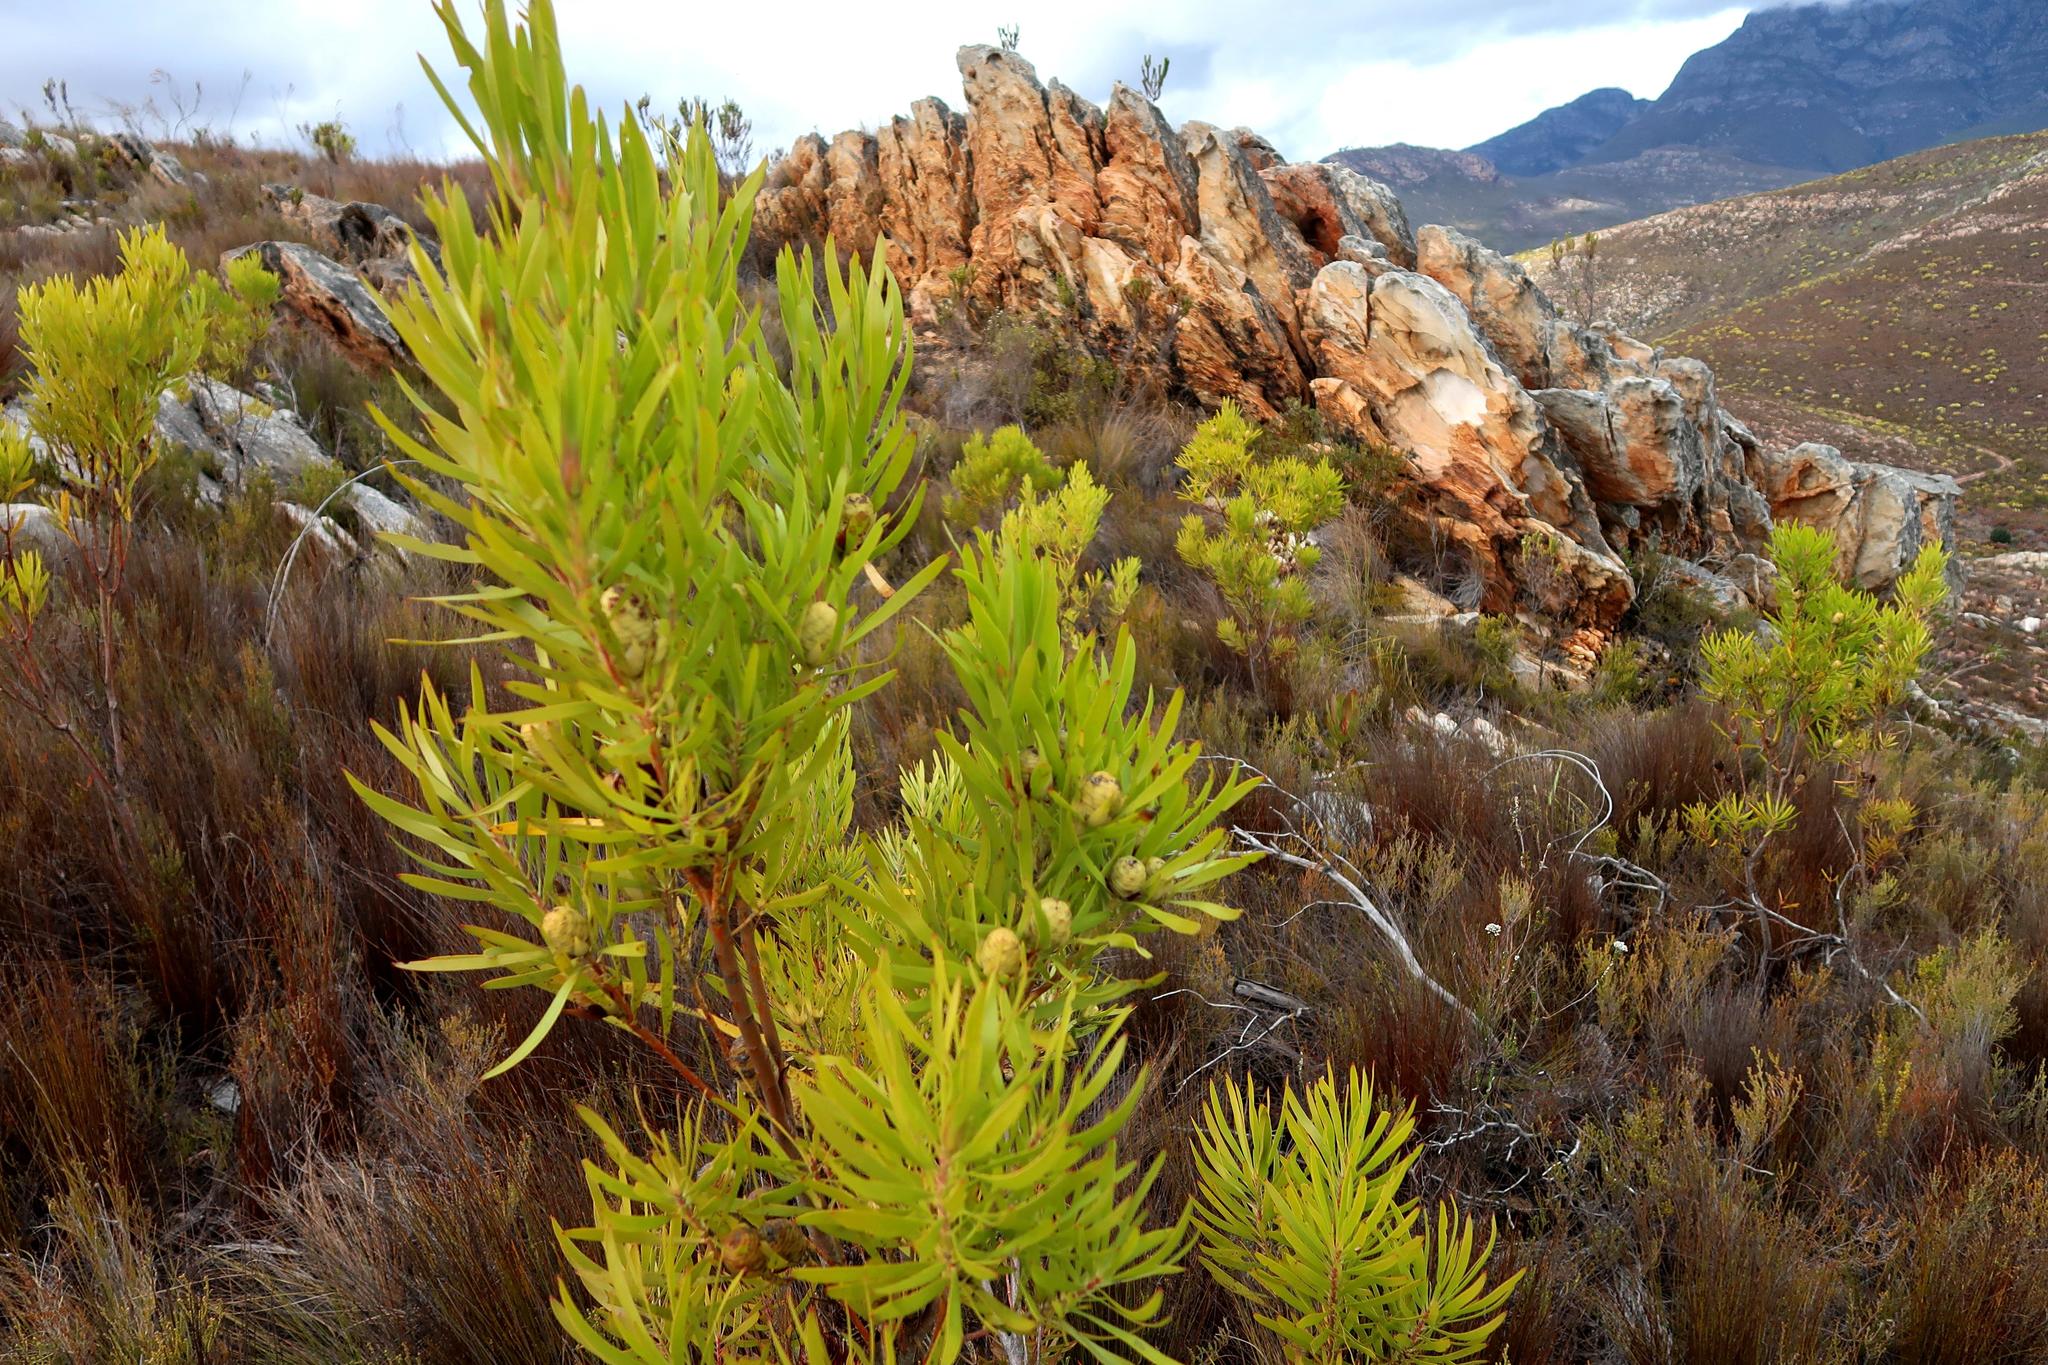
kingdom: Plantae
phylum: Tracheophyta
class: Magnoliopsida
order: Proteales
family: Proteaceae
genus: Leucadendron
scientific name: Leucadendron eucalyptifolium
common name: Gum-leaved conebush
